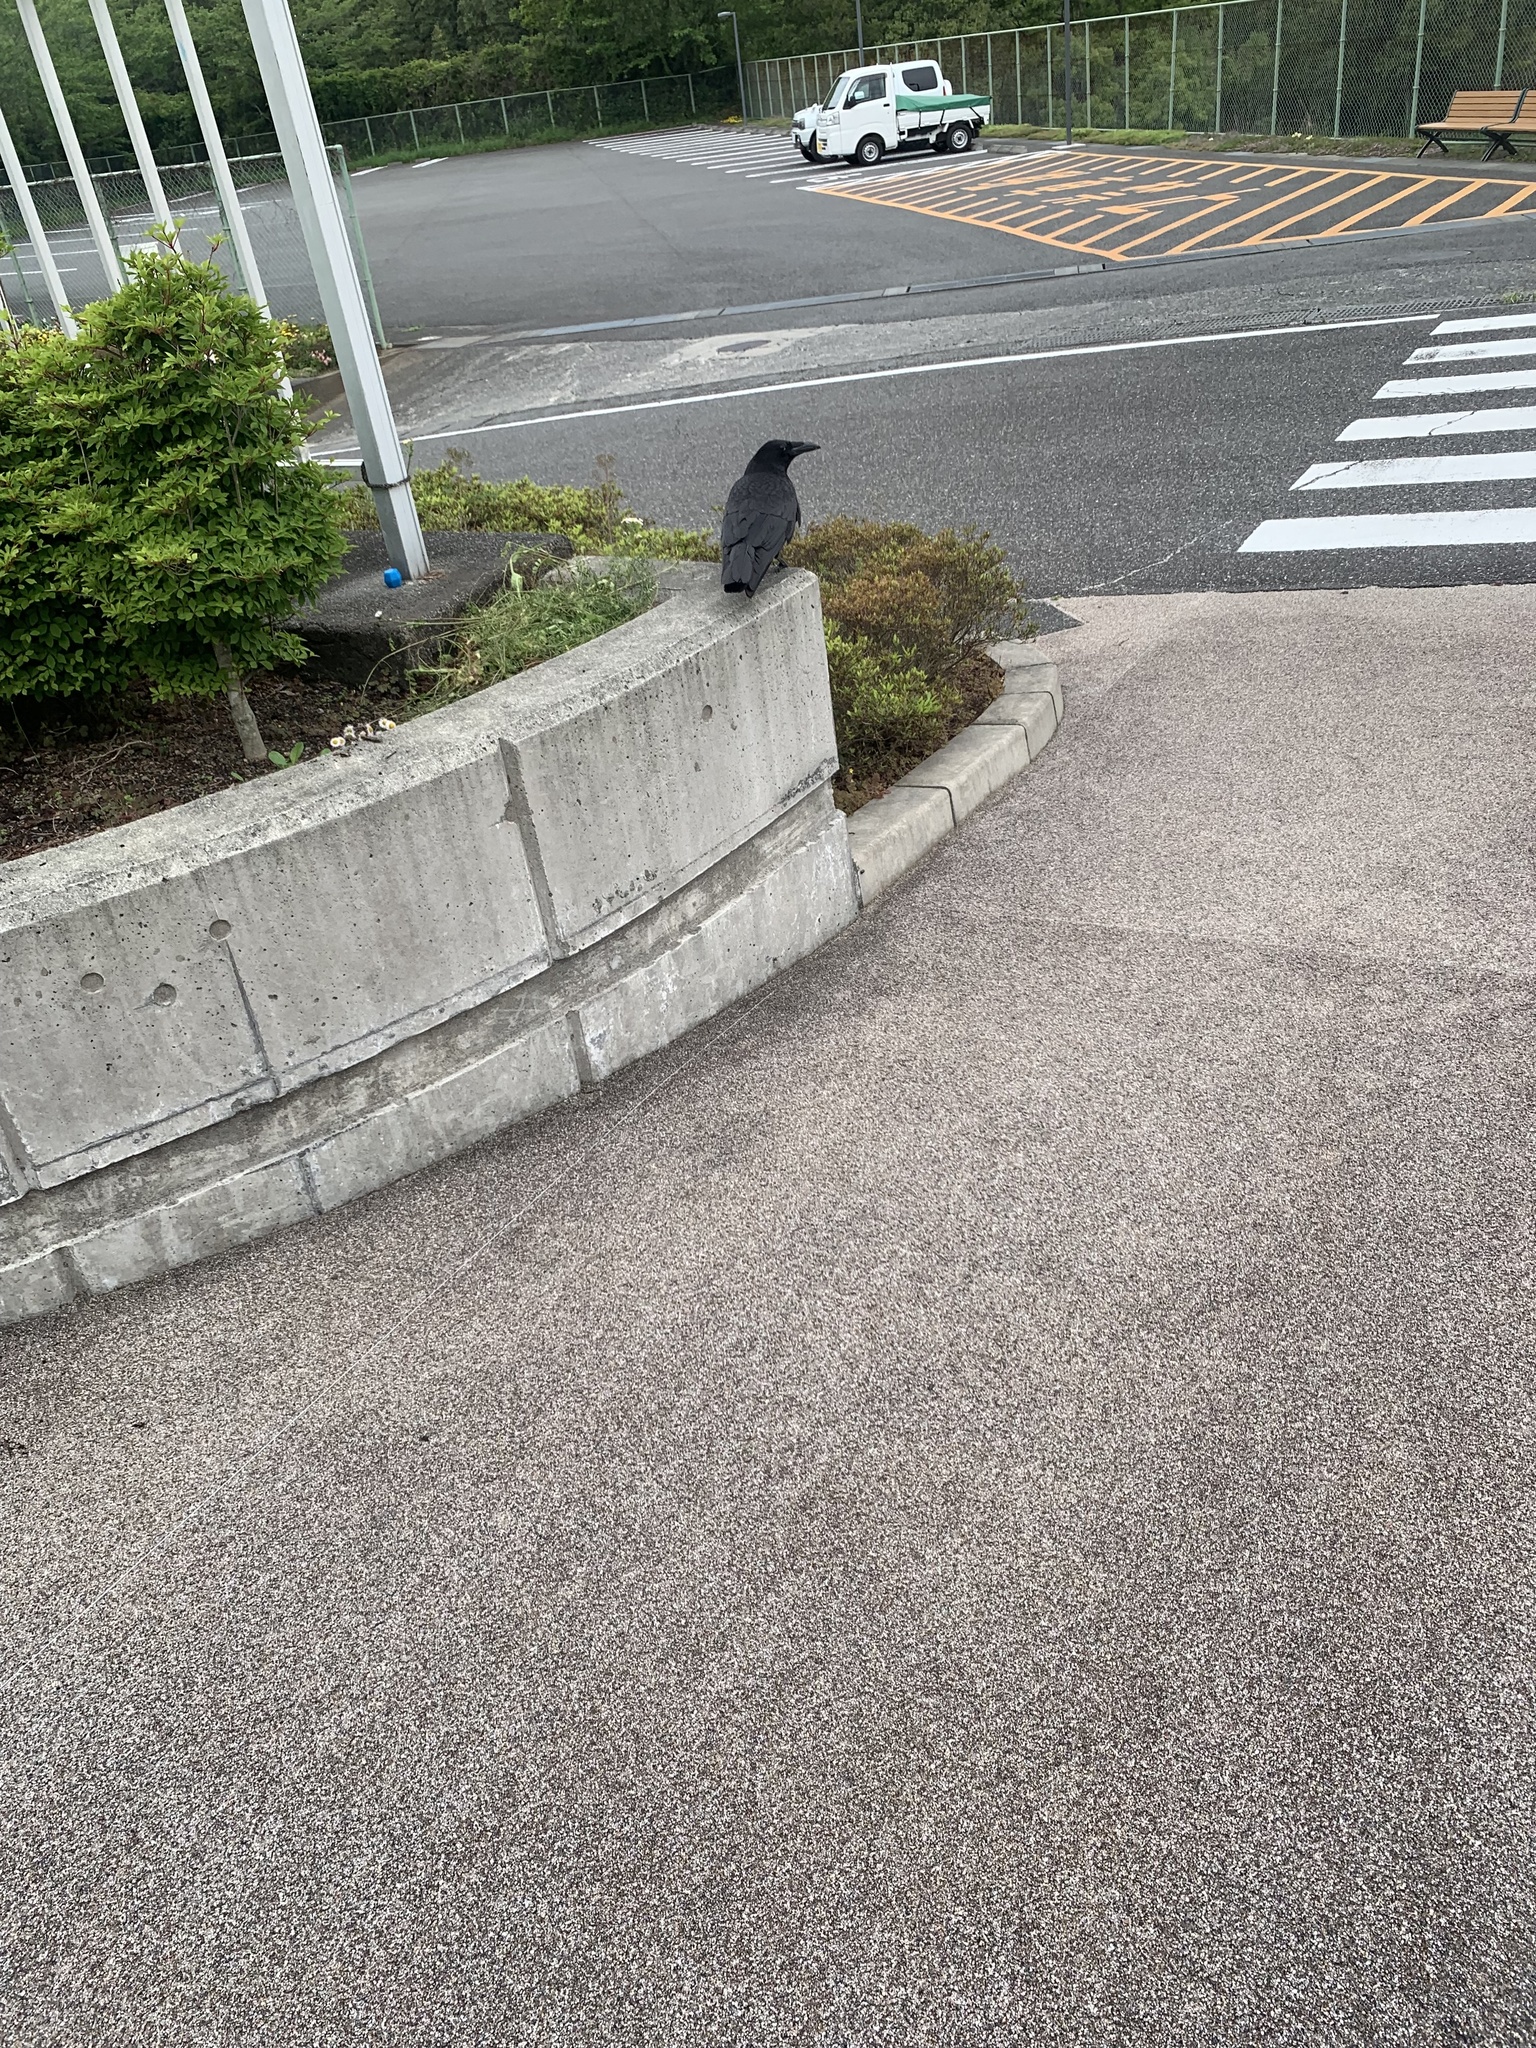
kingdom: Animalia
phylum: Chordata
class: Aves
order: Passeriformes
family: Corvidae
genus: Corvus
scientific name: Corvus corone
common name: Carrion crow
